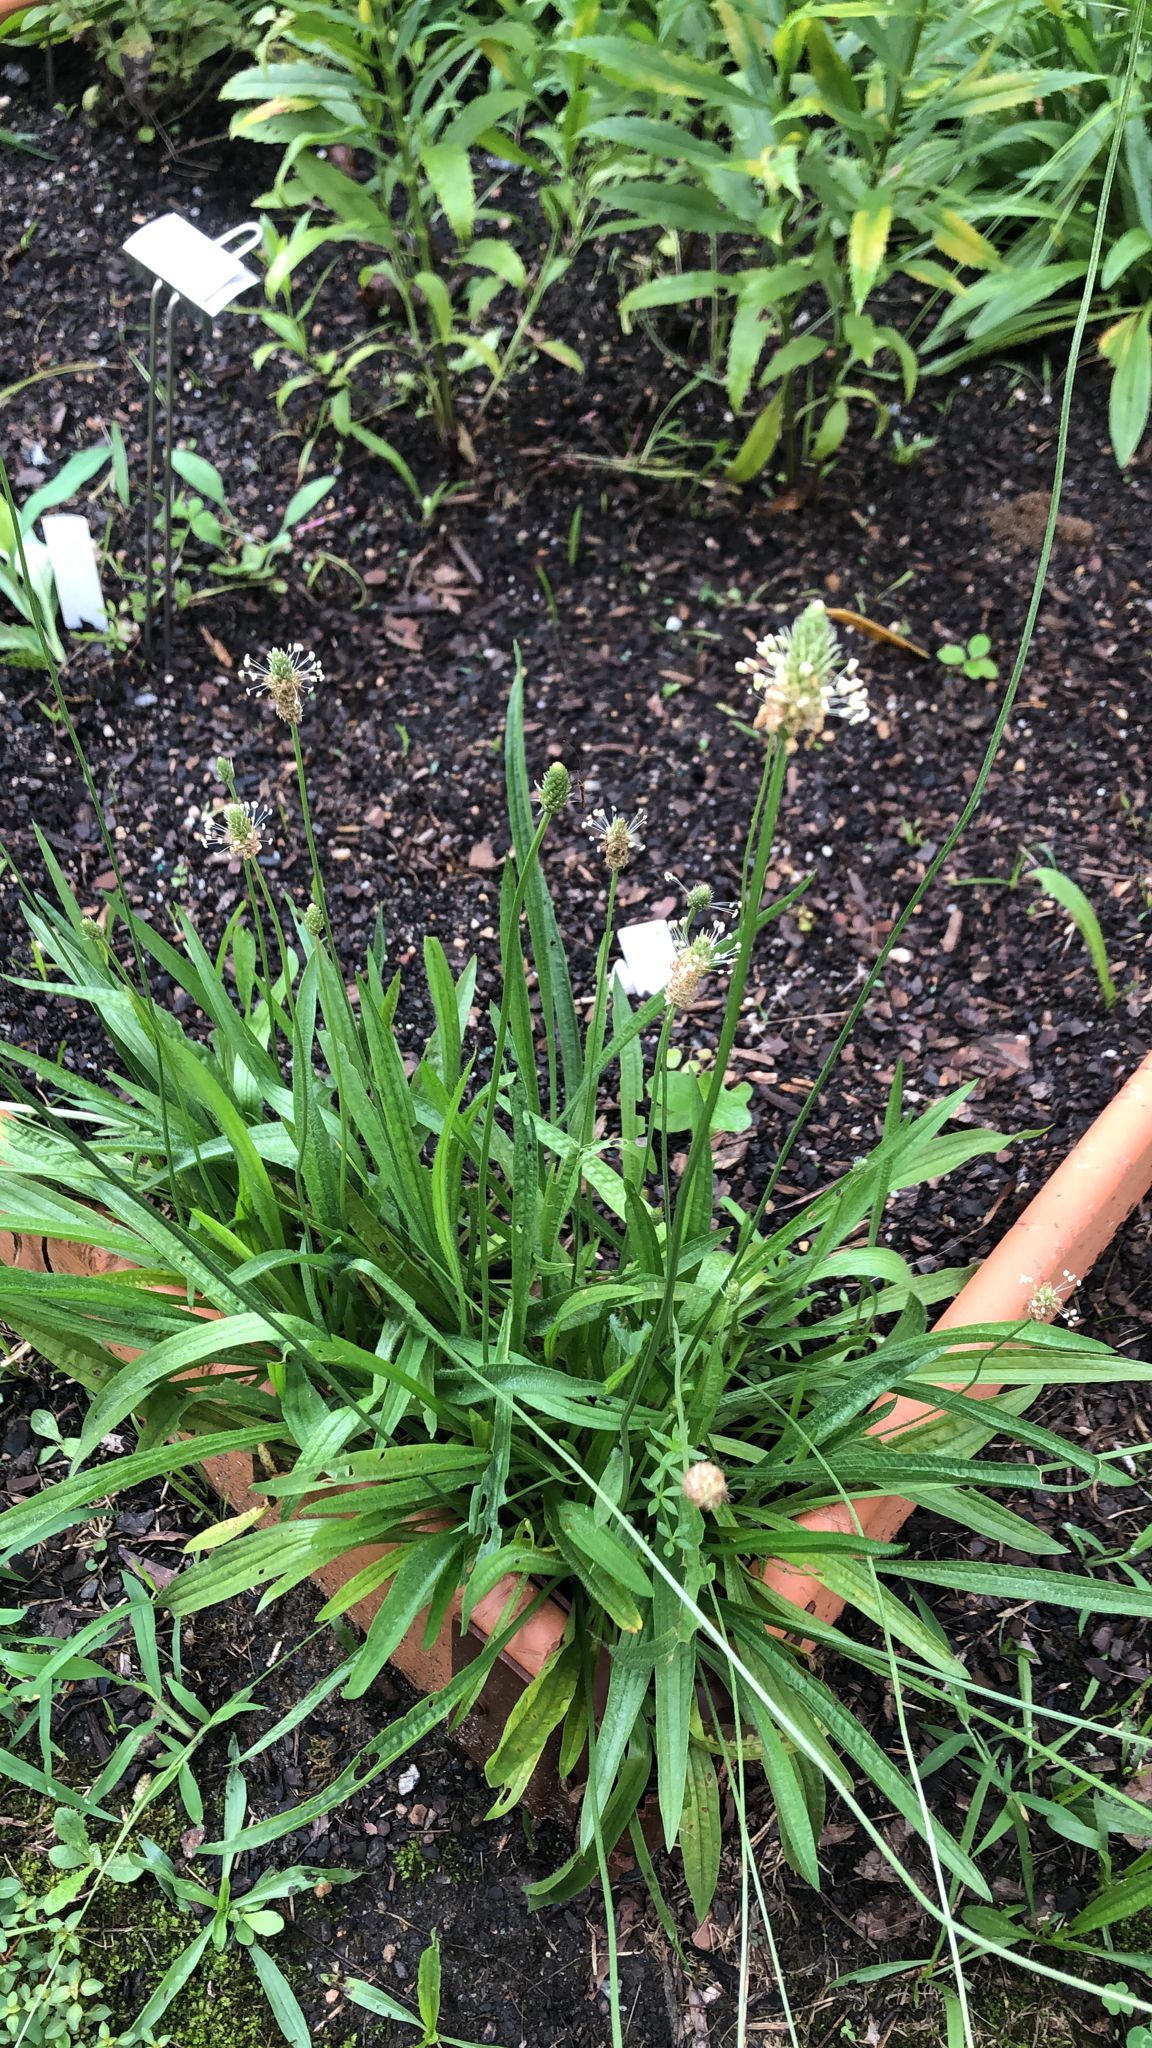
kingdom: Plantae
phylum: Tracheophyta
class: Magnoliopsida
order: Lamiales
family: Plantaginaceae
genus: Plantago
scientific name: Plantago lanceolata
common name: Ribwort plantain
